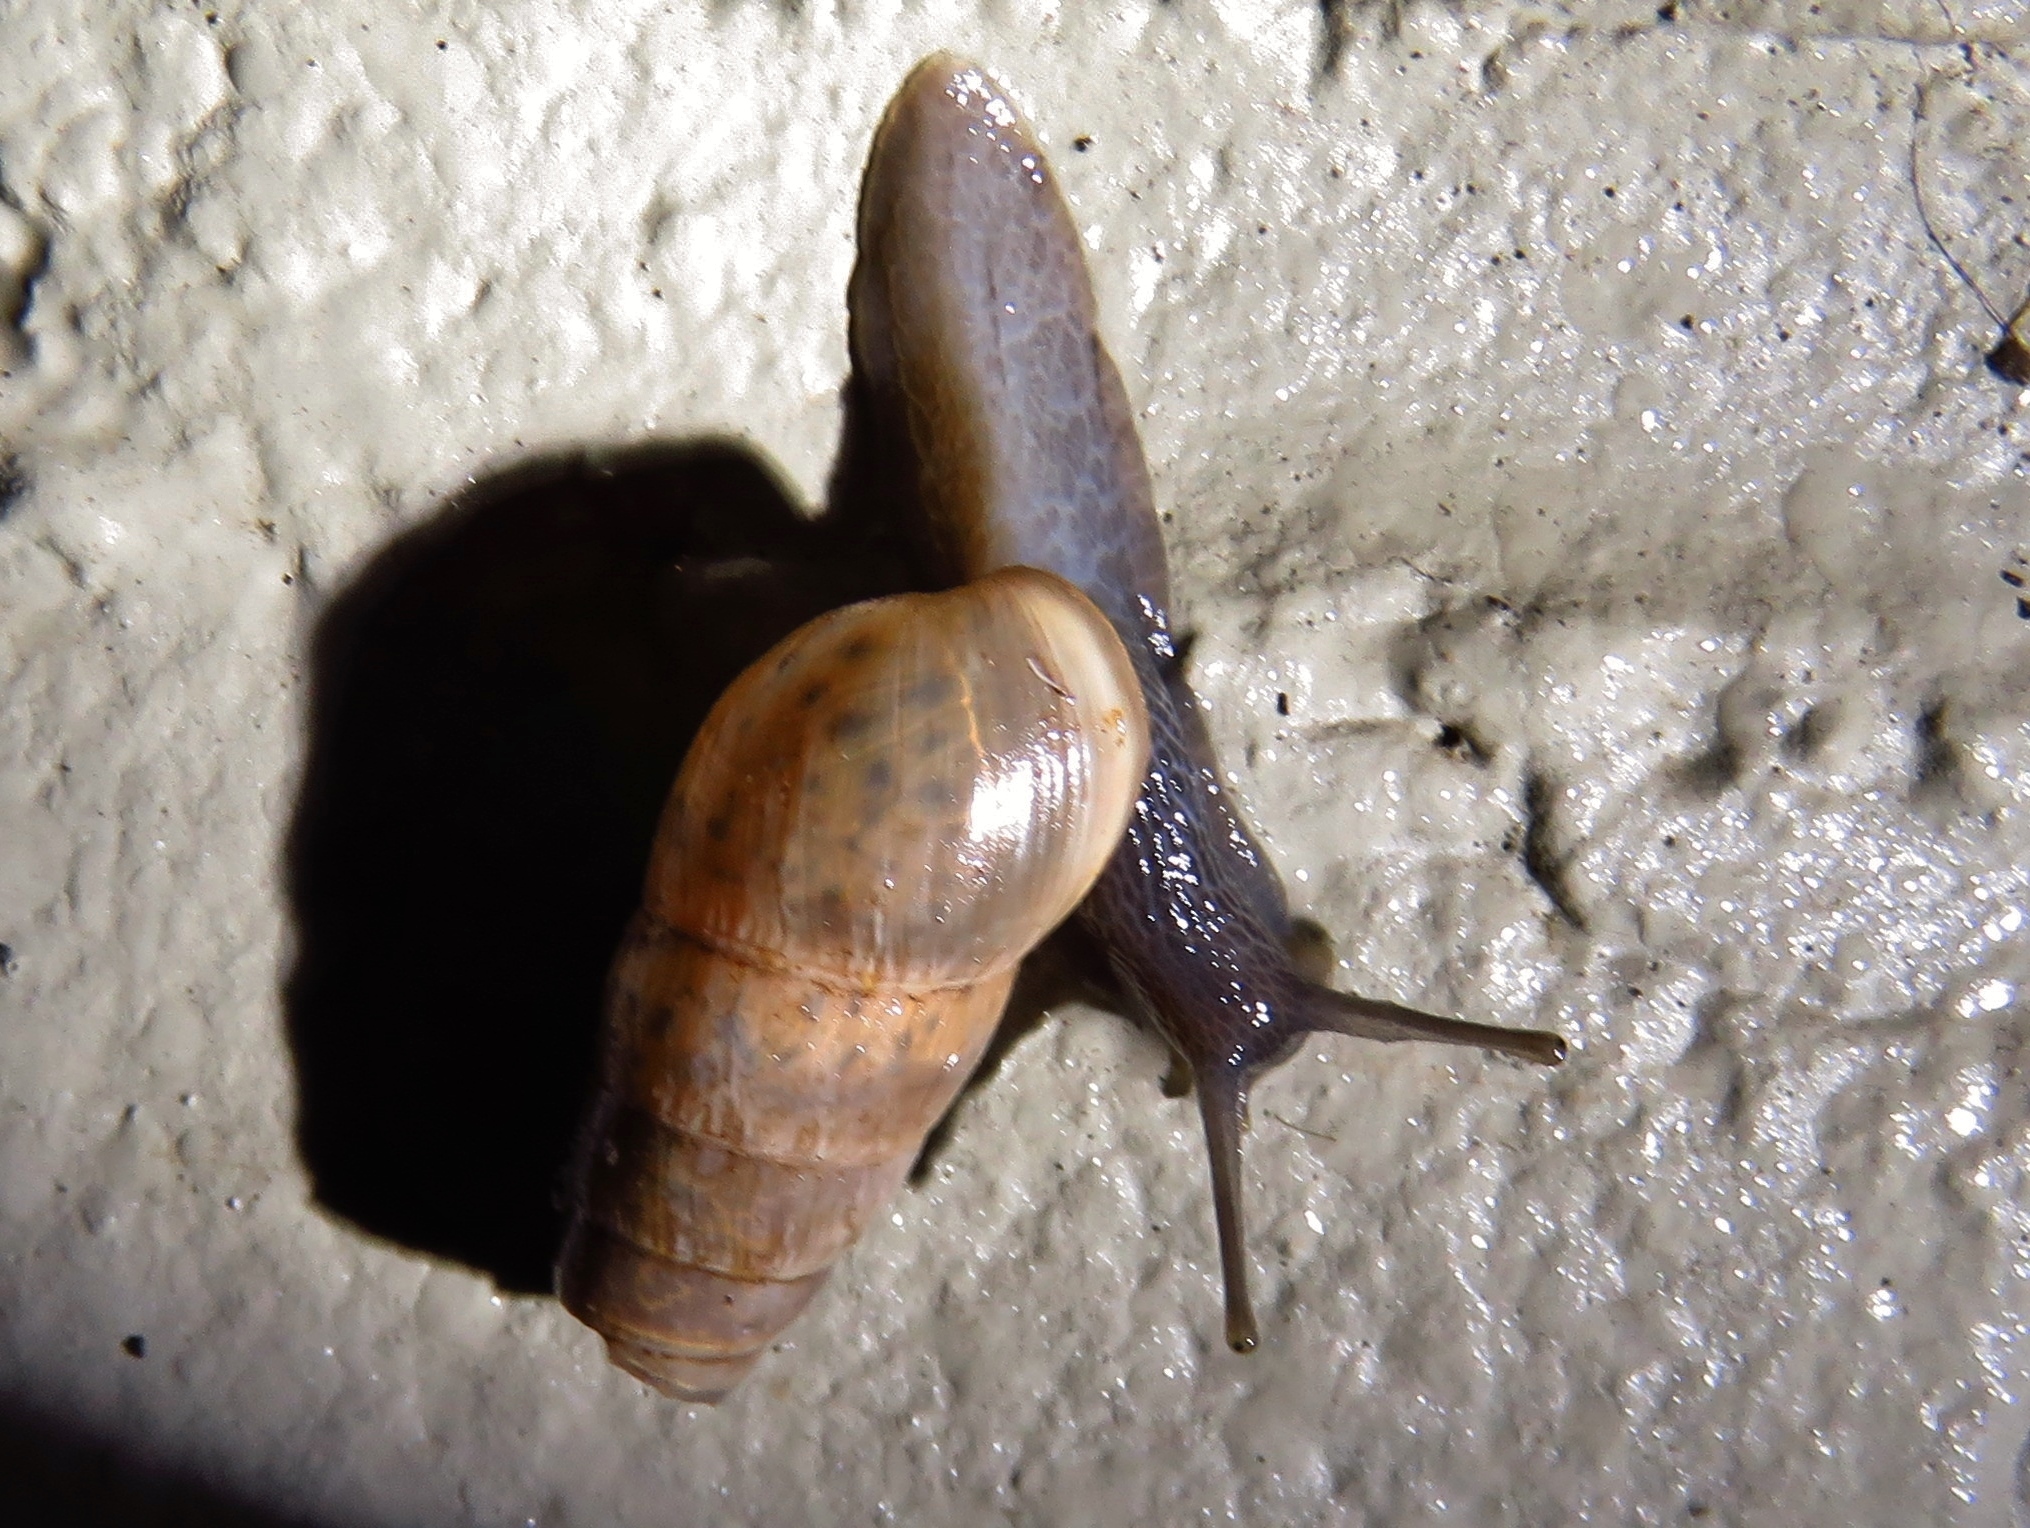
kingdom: Animalia
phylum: Mollusca
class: Gastropoda
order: Stylommatophora
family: Achatinidae
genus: Rumina
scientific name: Rumina decollata
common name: Decollate snail
